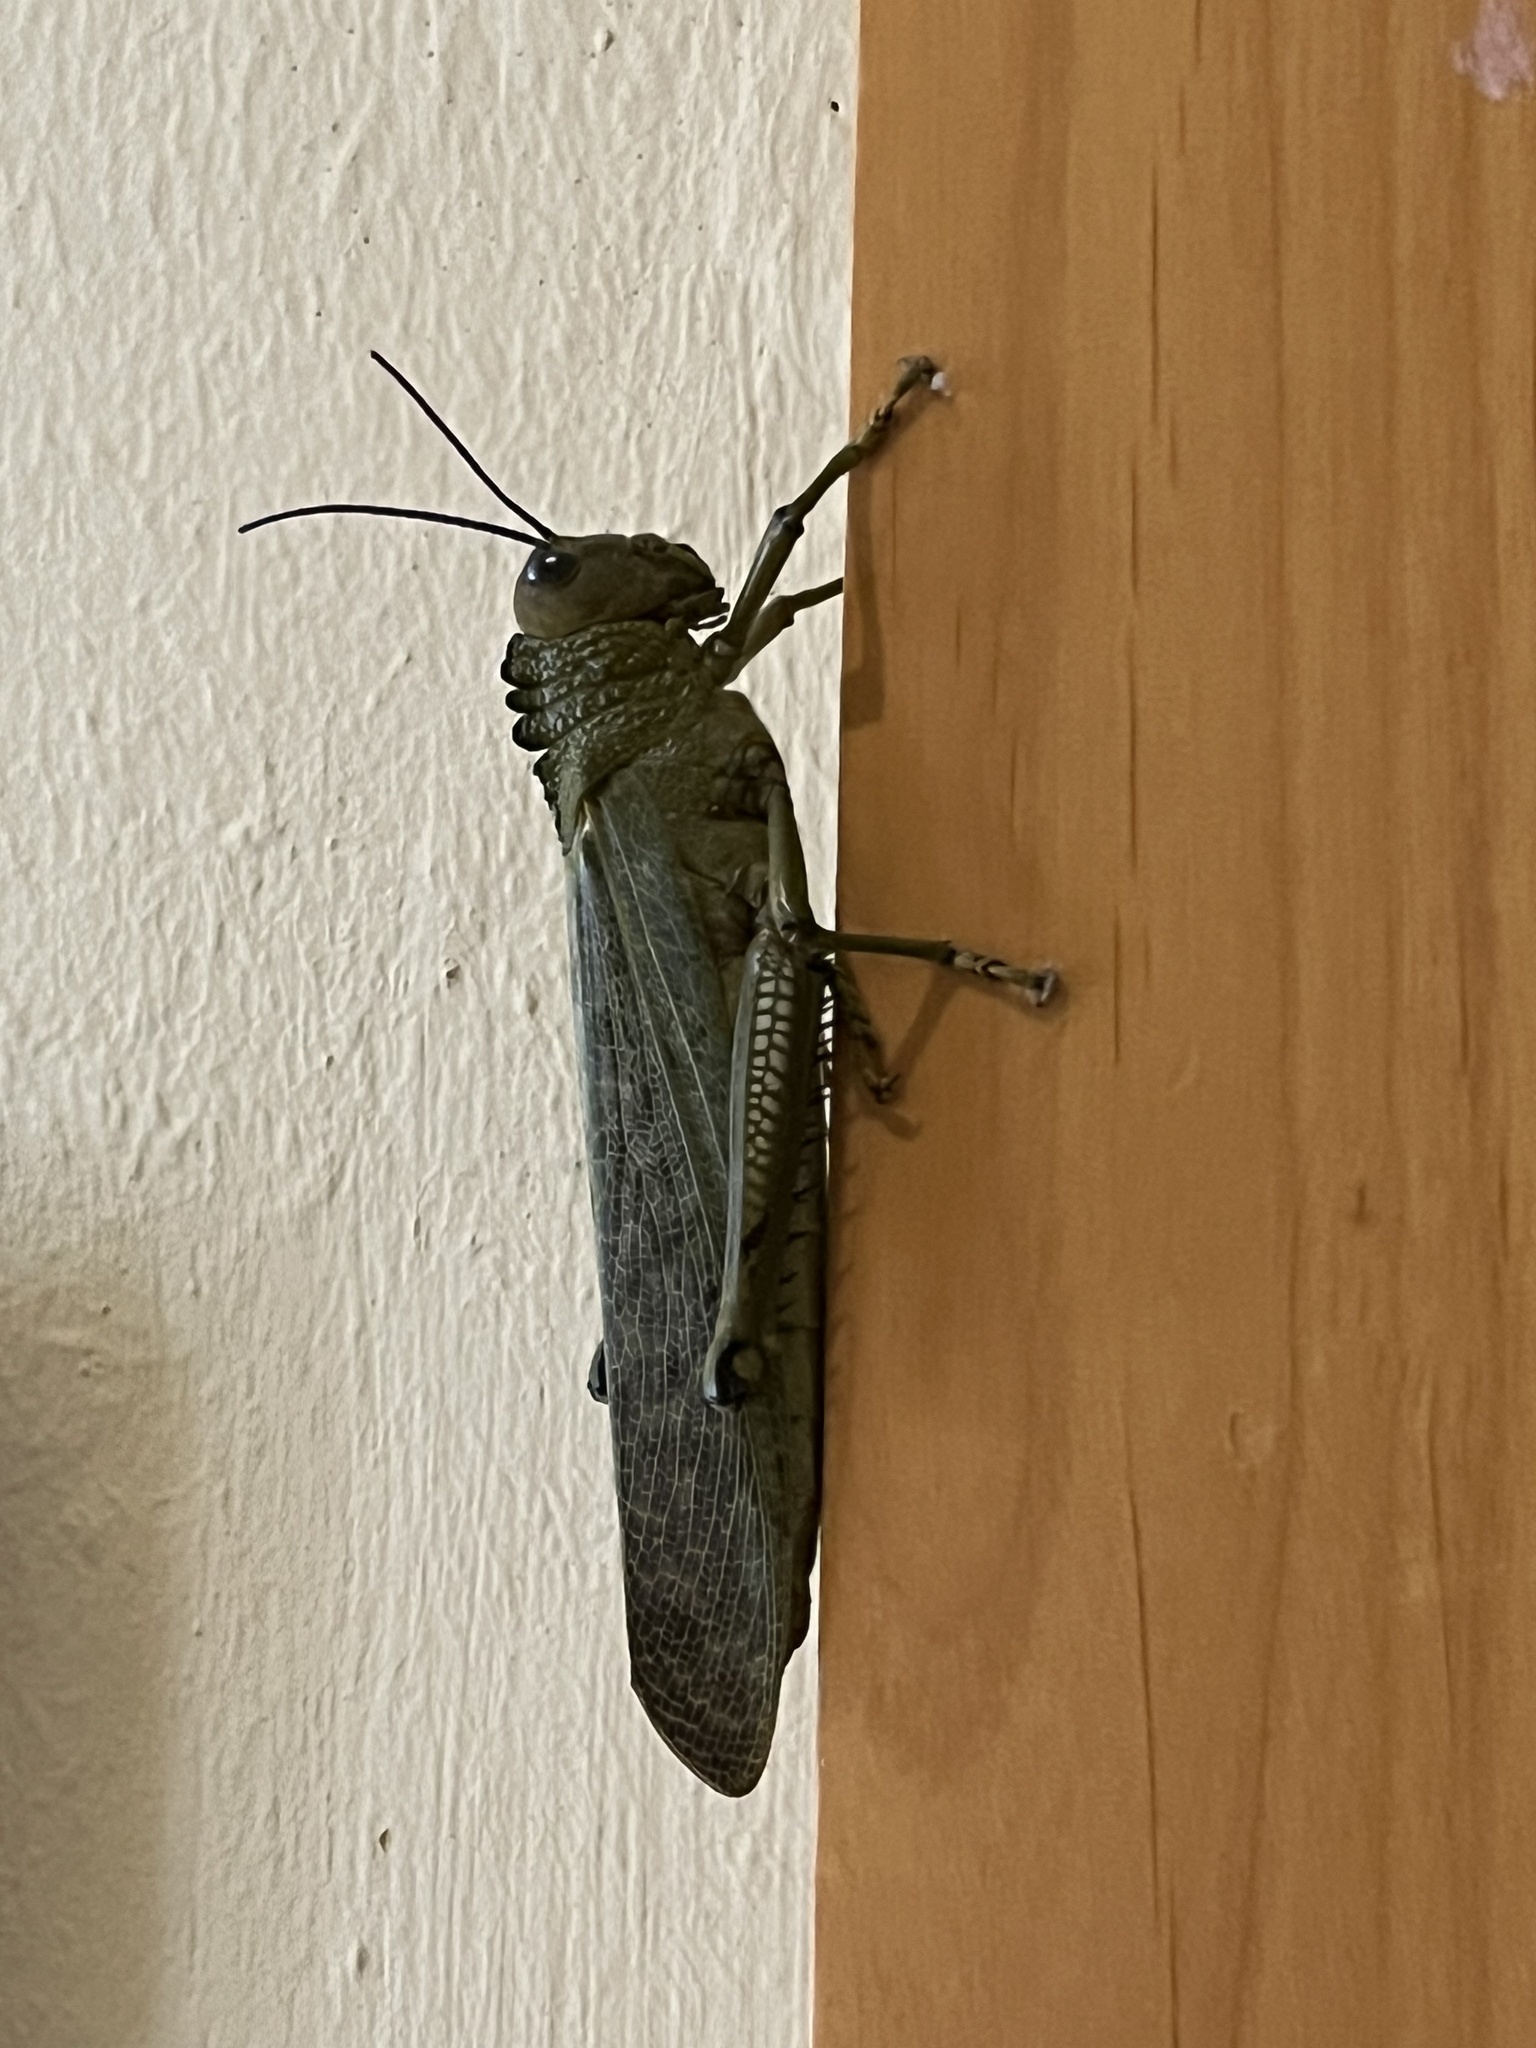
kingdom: Animalia
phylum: Arthropoda
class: Insecta
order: Orthoptera
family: Romaleidae
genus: Tropidacris
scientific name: Tropidacris cristata
